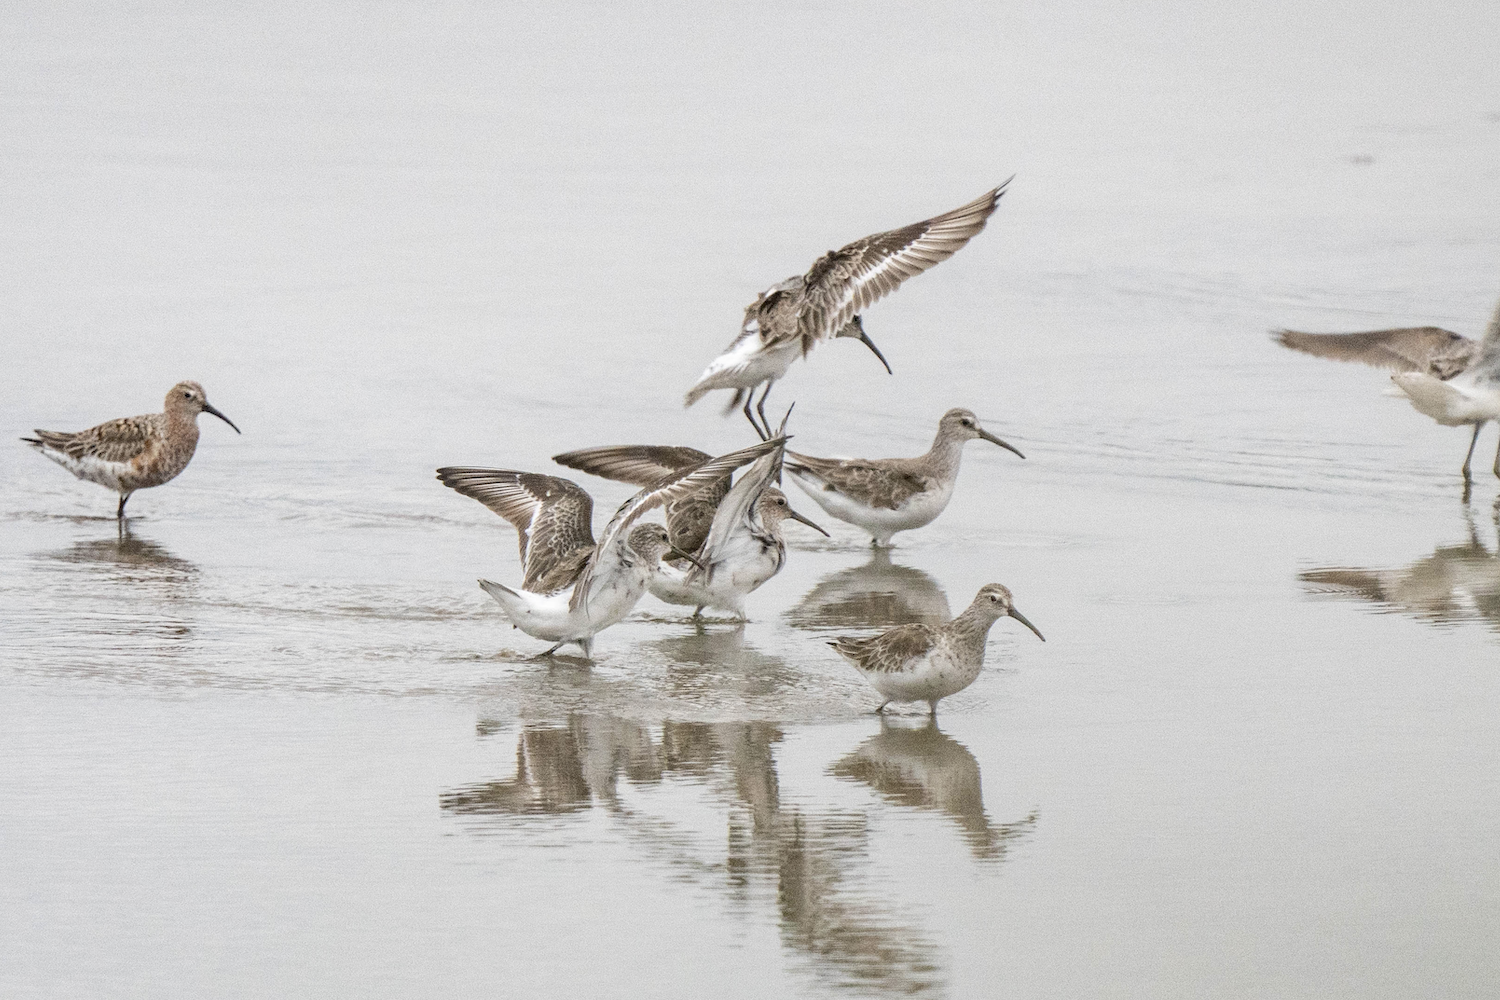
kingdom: Animalia
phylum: Chordata
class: Aves
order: Charadriiformes
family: Scolopacidae
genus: Calidris
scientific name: Calidris ferruginea
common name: Curlew sandpiper
